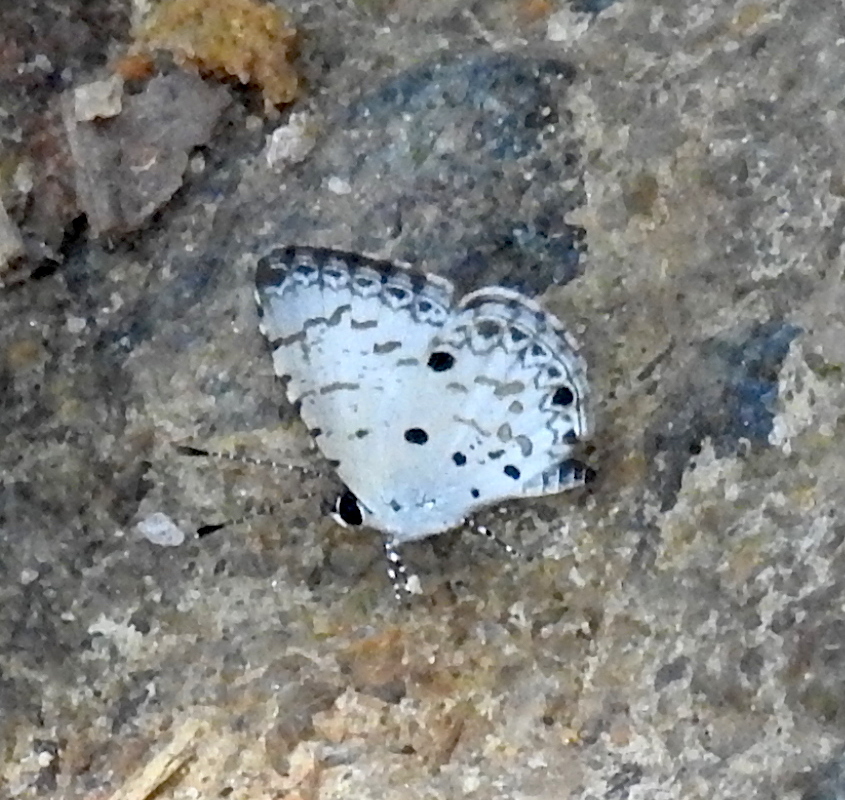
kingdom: Animalia
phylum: Arthropoda
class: Insecta
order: Lepidoptera
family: Lycaenidae
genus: Megisba
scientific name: Megisba malaya
